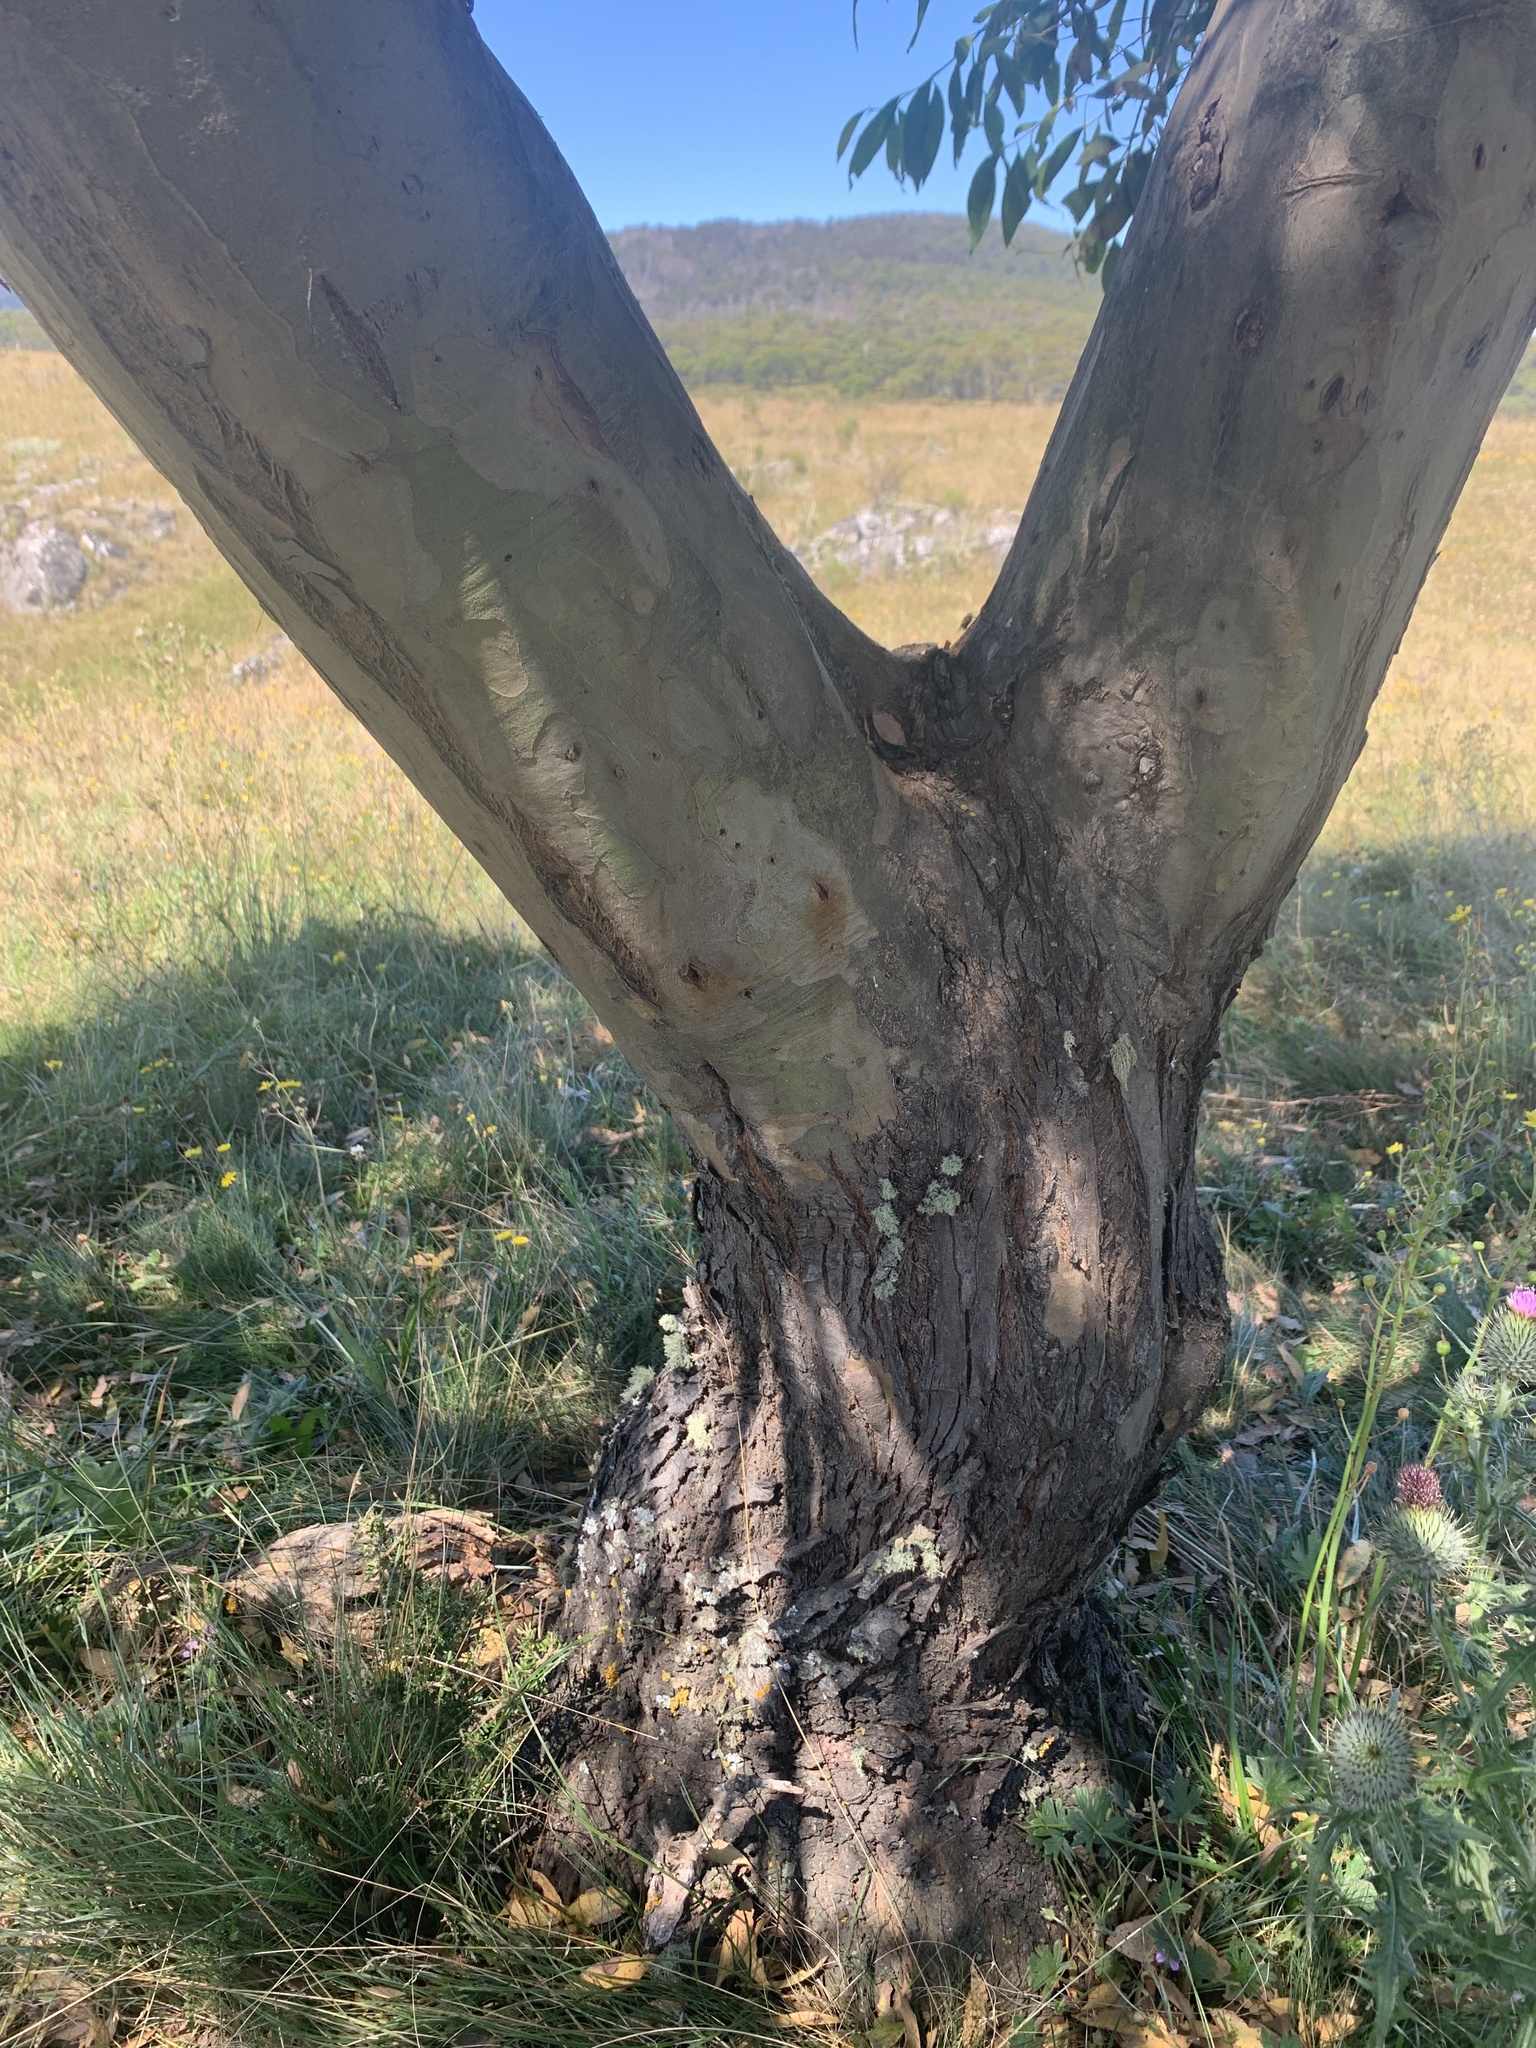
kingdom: Plantae
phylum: Tracheophyta
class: Magnoliopsida
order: Myrtales
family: Myrtaceae
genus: Eucalyptus
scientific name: Eucalyptus stellulata
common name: Black sallee
